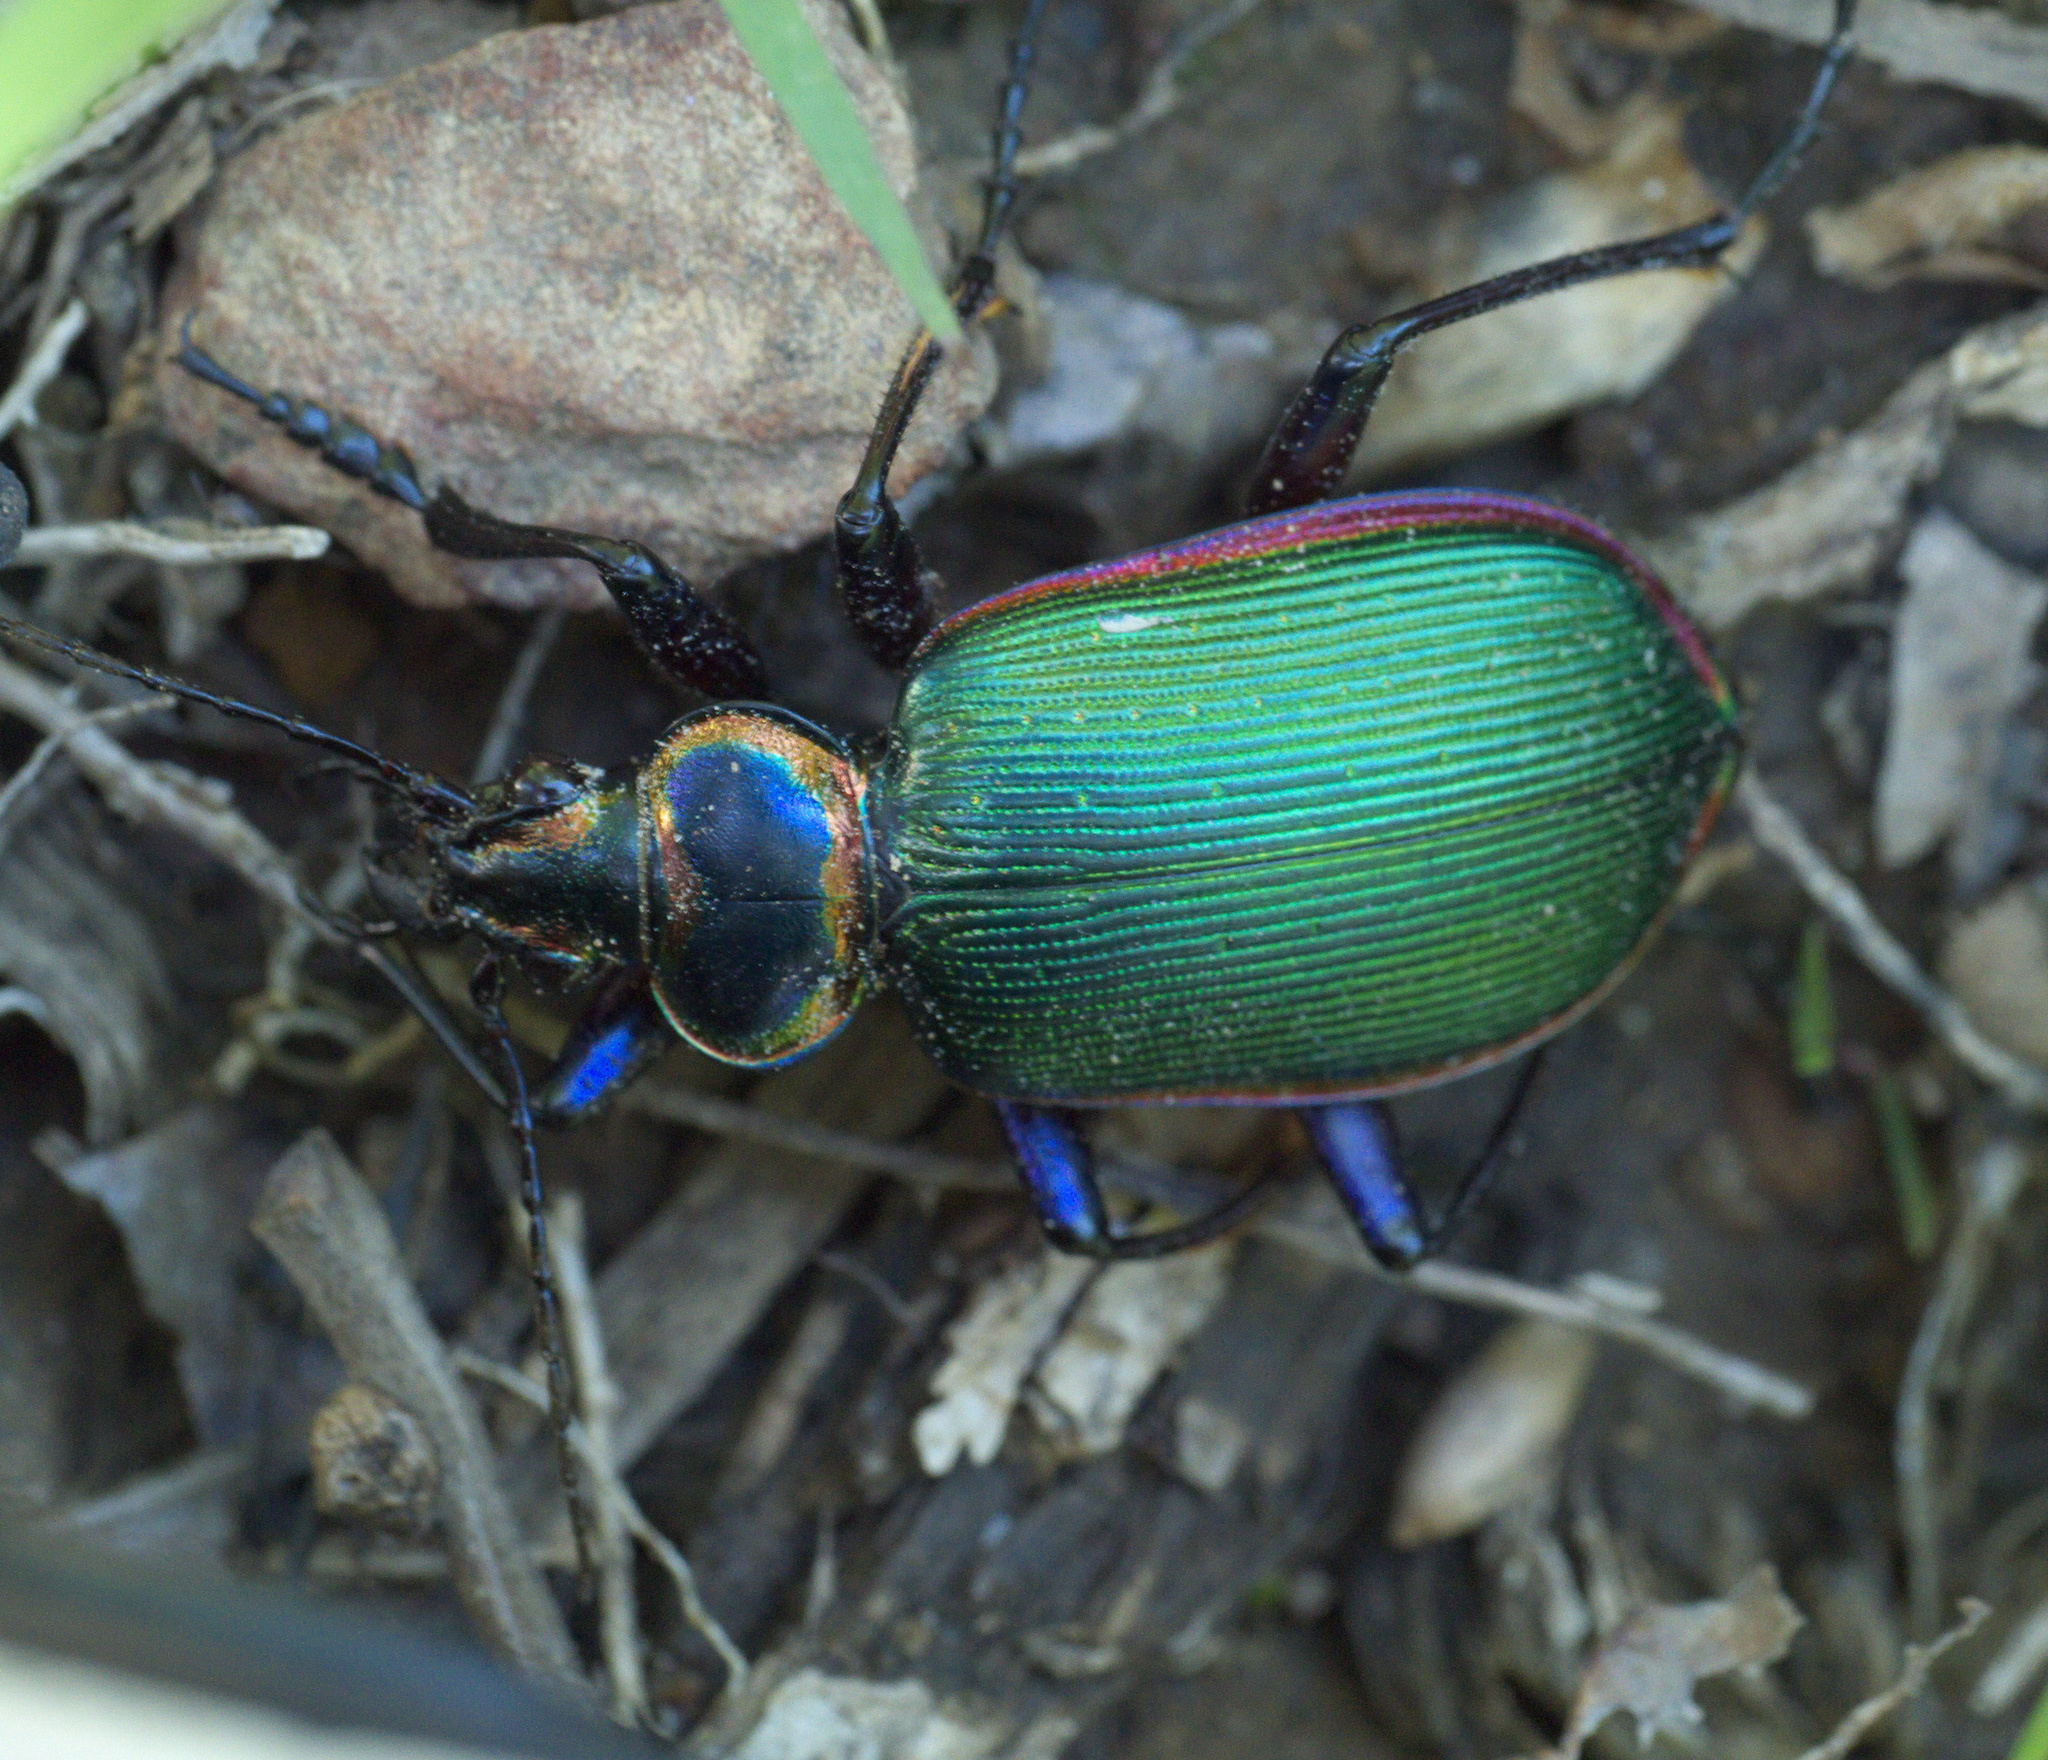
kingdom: Animalia
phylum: Arthropoda
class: Insecta
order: Coleoptera
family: Carabidae
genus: Calosoma
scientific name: Calosoma scrutator
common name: Fiery searcher beetle
